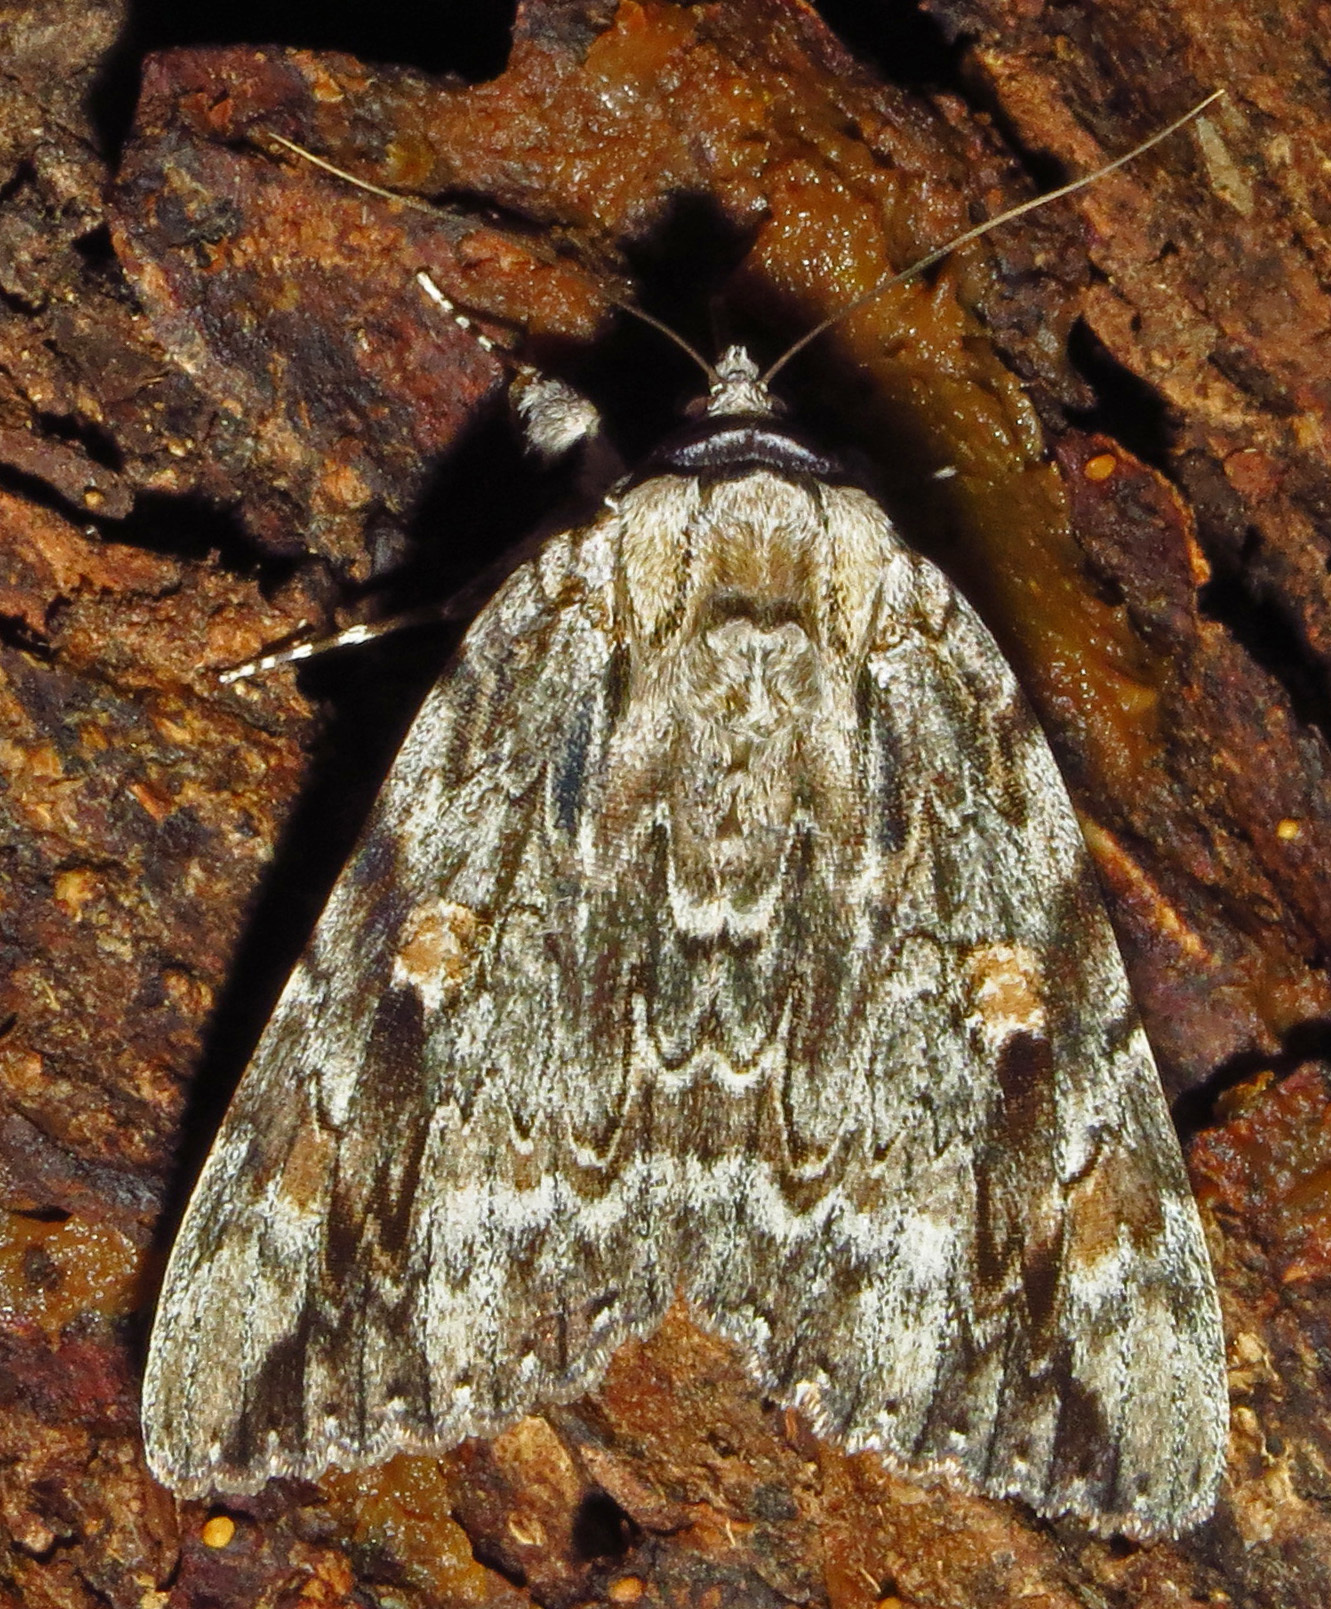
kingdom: Animalia
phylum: Arthropoda
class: Insecta
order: Lepidoptera
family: Erebidae
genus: Catocala
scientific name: Catocala maestosa
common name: Sad underwing
